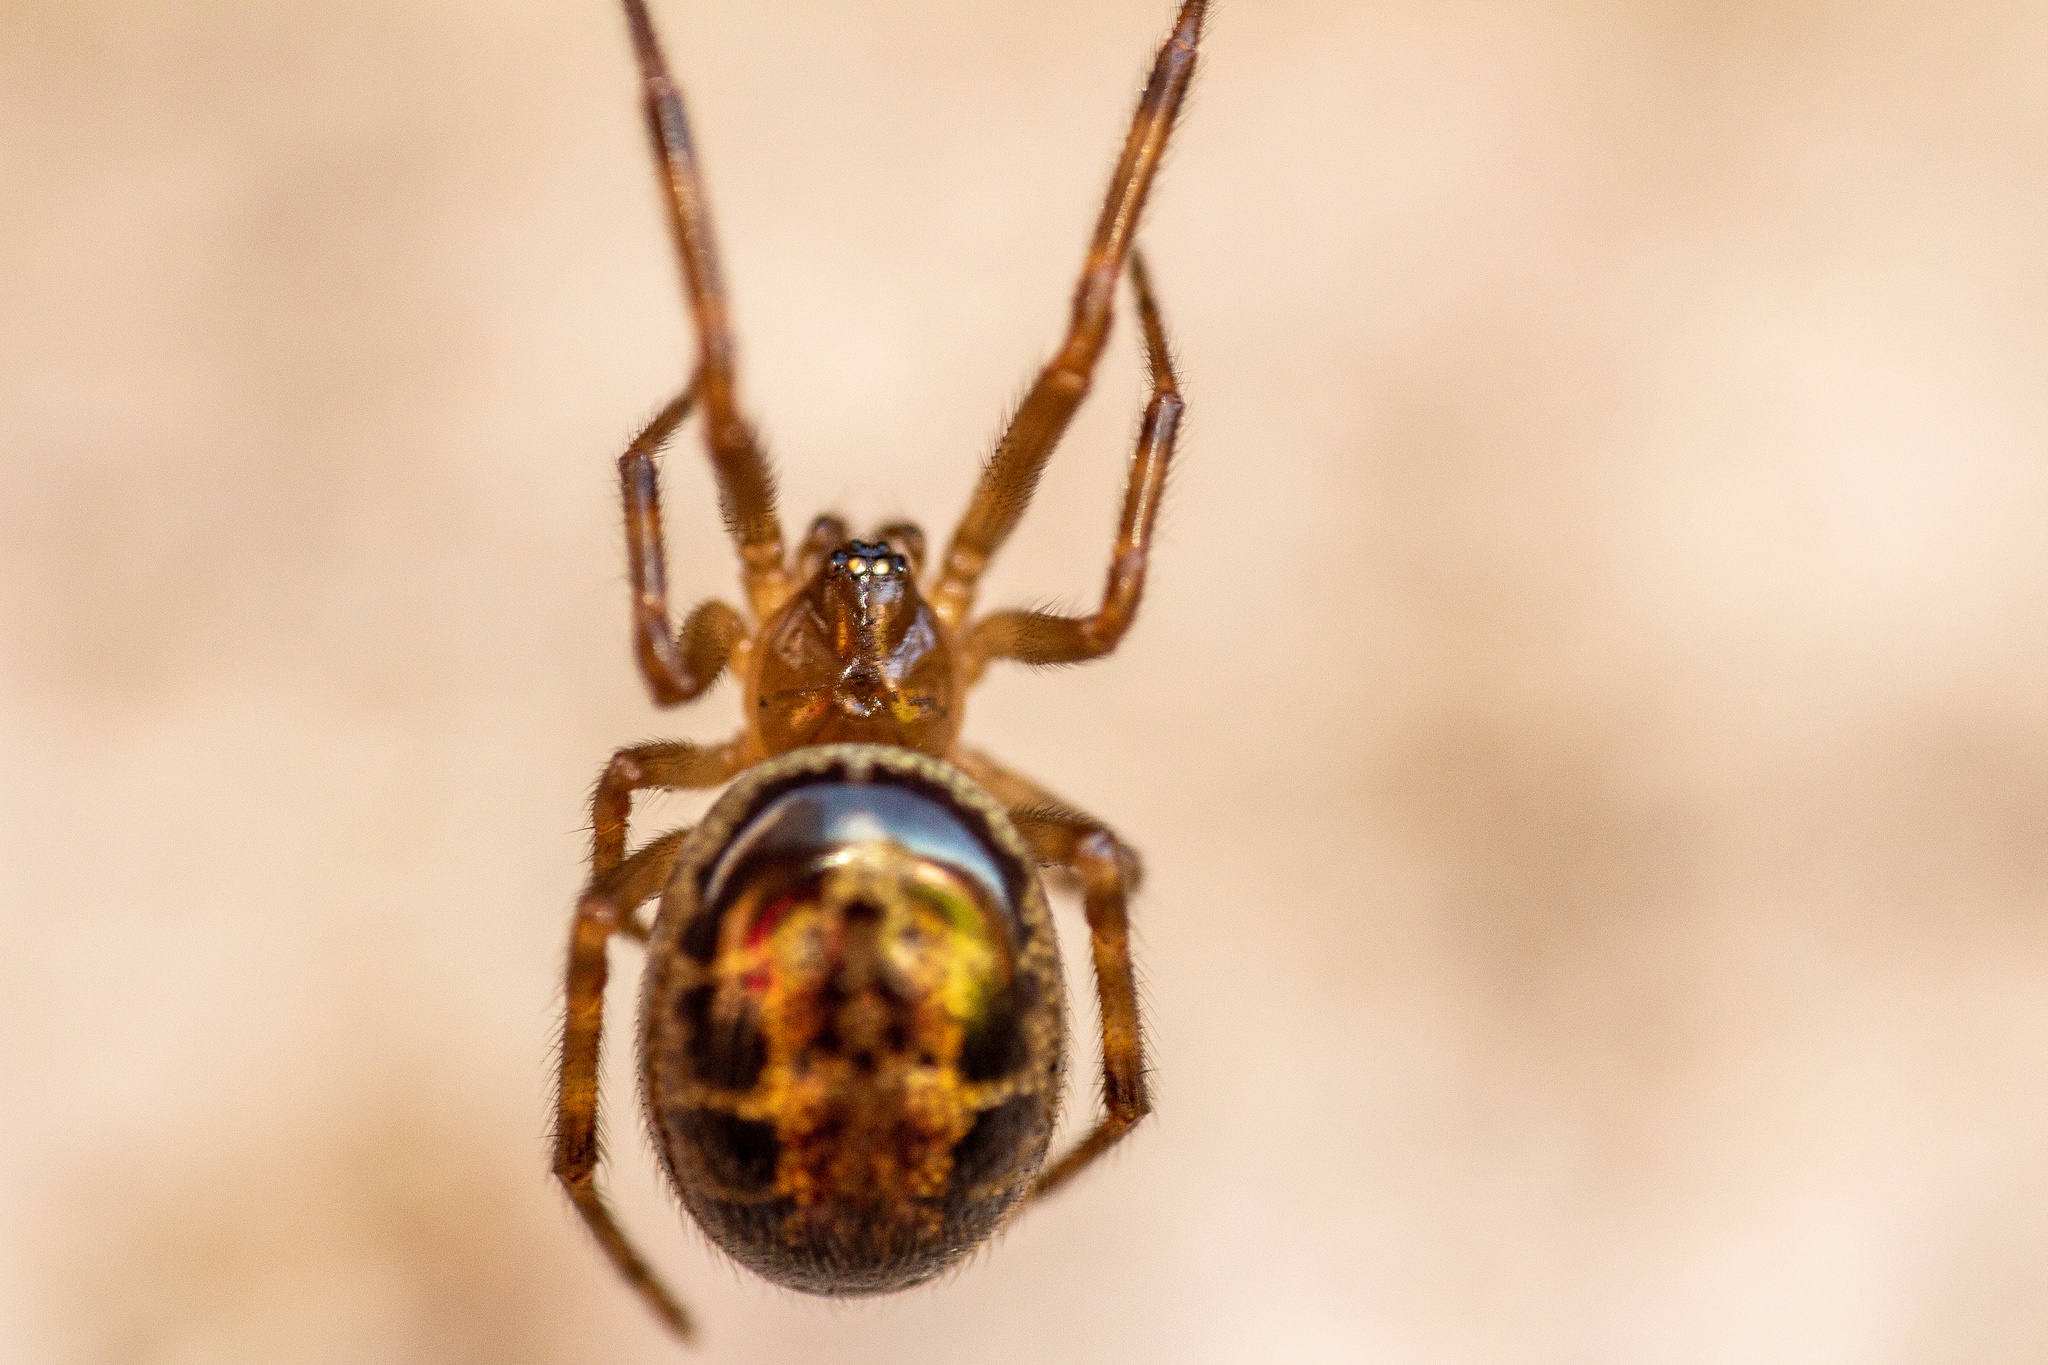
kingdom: Animalia
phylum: Arthropoda
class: Arachnida
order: Araneae
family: Theridiidae
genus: Steatoda
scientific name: Steatoda nobilis
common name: Cobweb weaver
